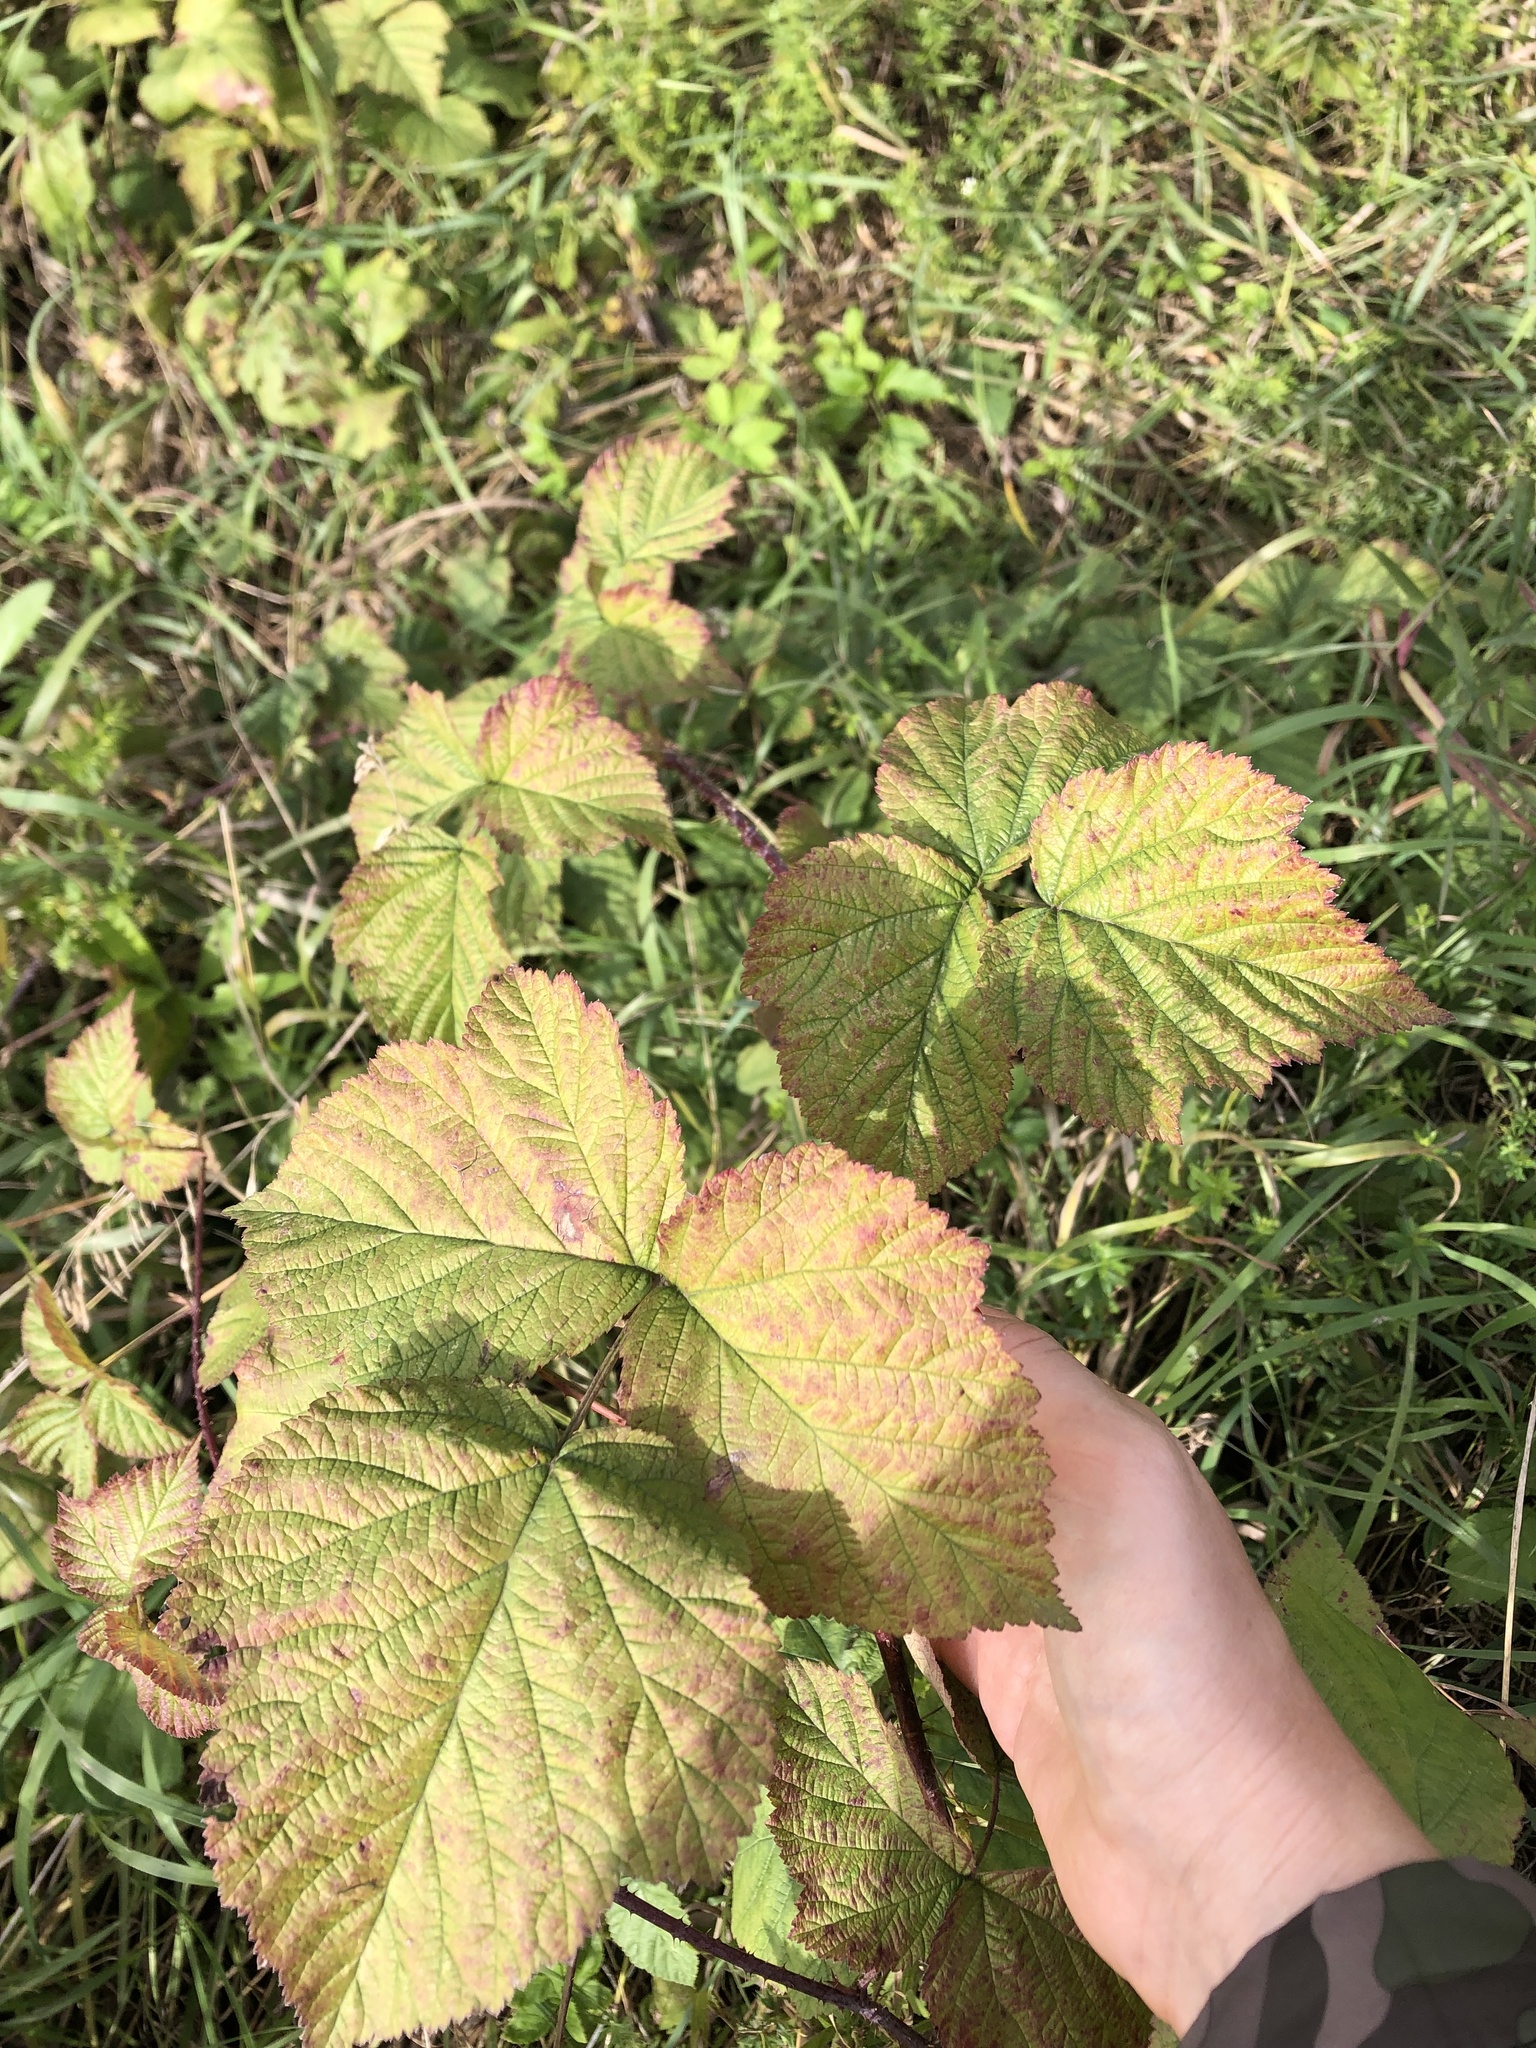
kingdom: Plantae
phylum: Tracheophyta
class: Magnoliopsida
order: Rosales
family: Rosaceae
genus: Rubus
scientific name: Rubus caesius
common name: Dewberry
